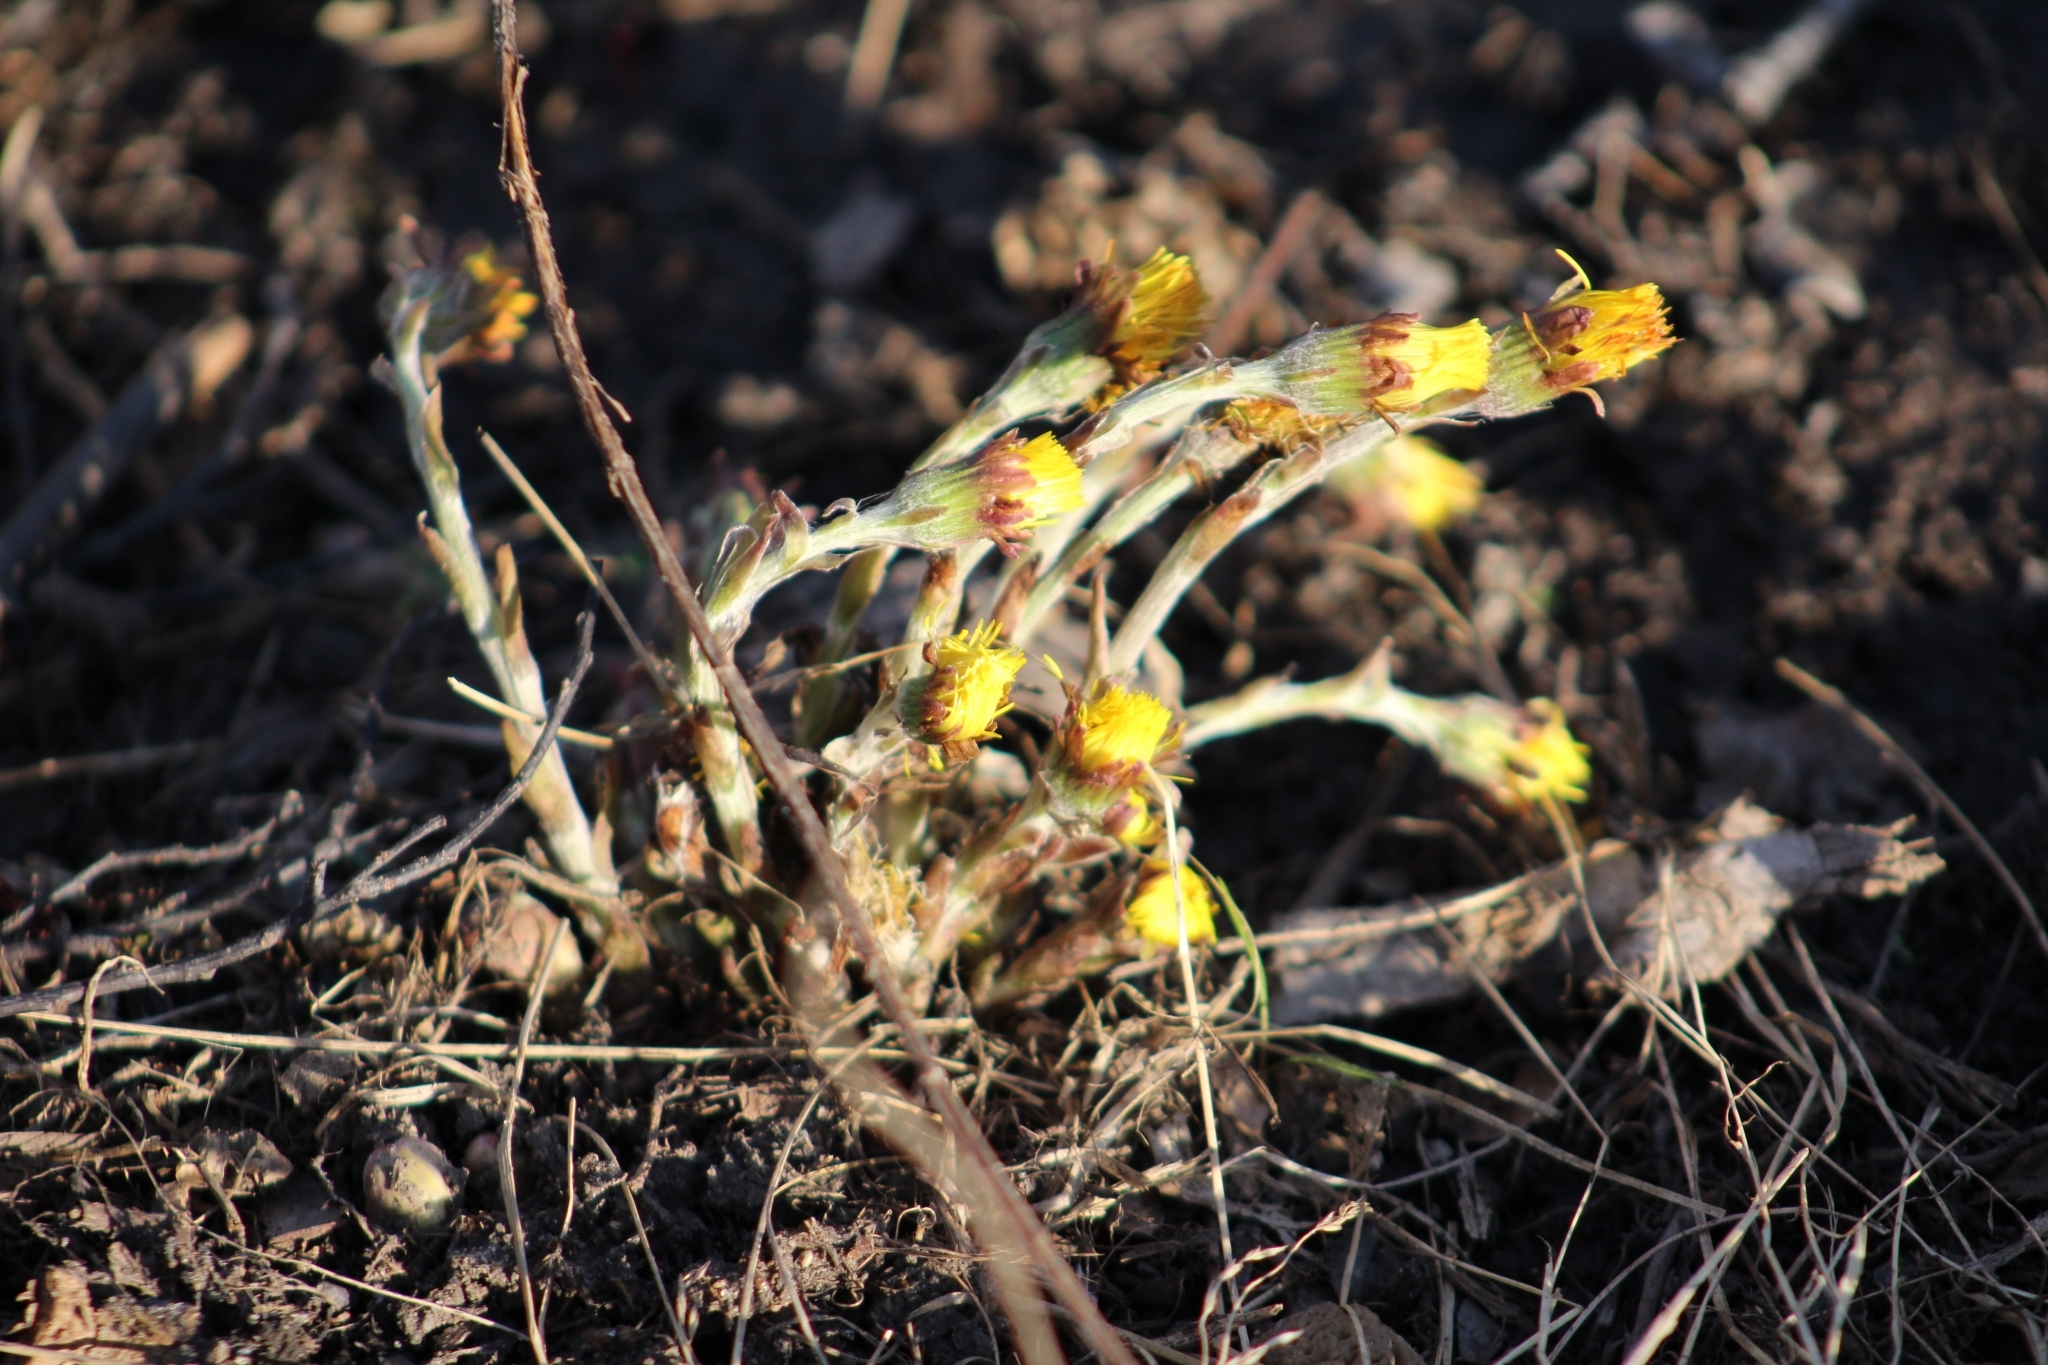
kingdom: Plantae
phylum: Tracheophyta
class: Magnoliopsida
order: Asterales
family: Asteraceae
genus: Tussilago
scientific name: Tussilago farfara
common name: Coltsfoot
